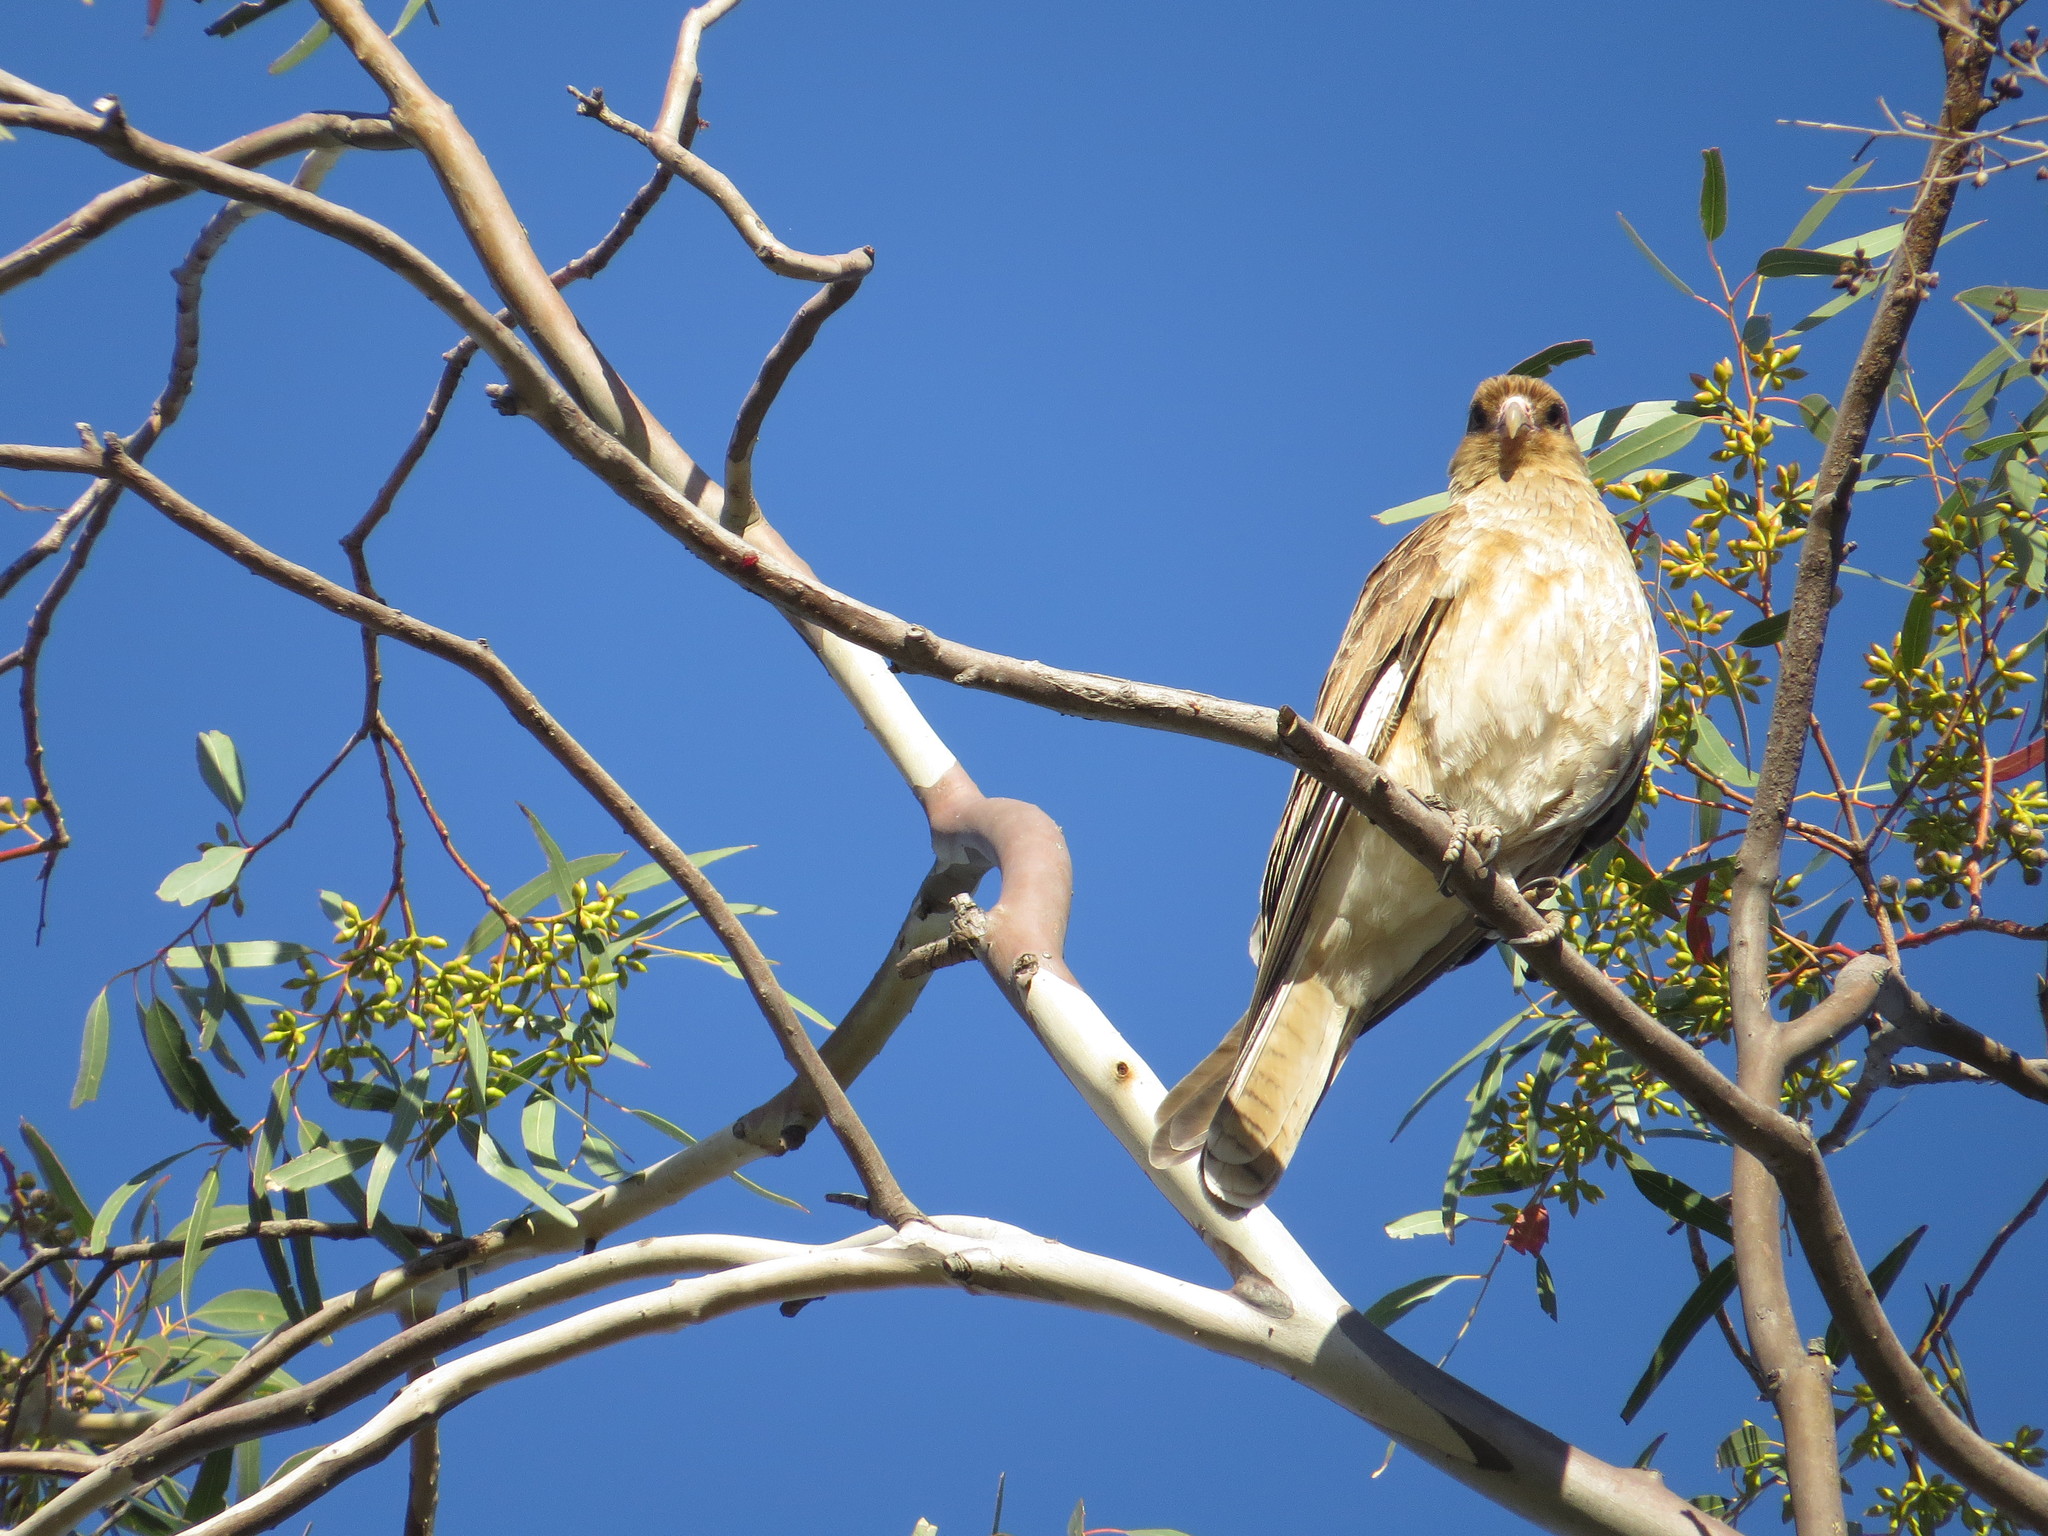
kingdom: Animalia
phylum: Chordata
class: Aves
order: Falconiformes
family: Falconidae
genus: Daptrius
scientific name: Daptrius
